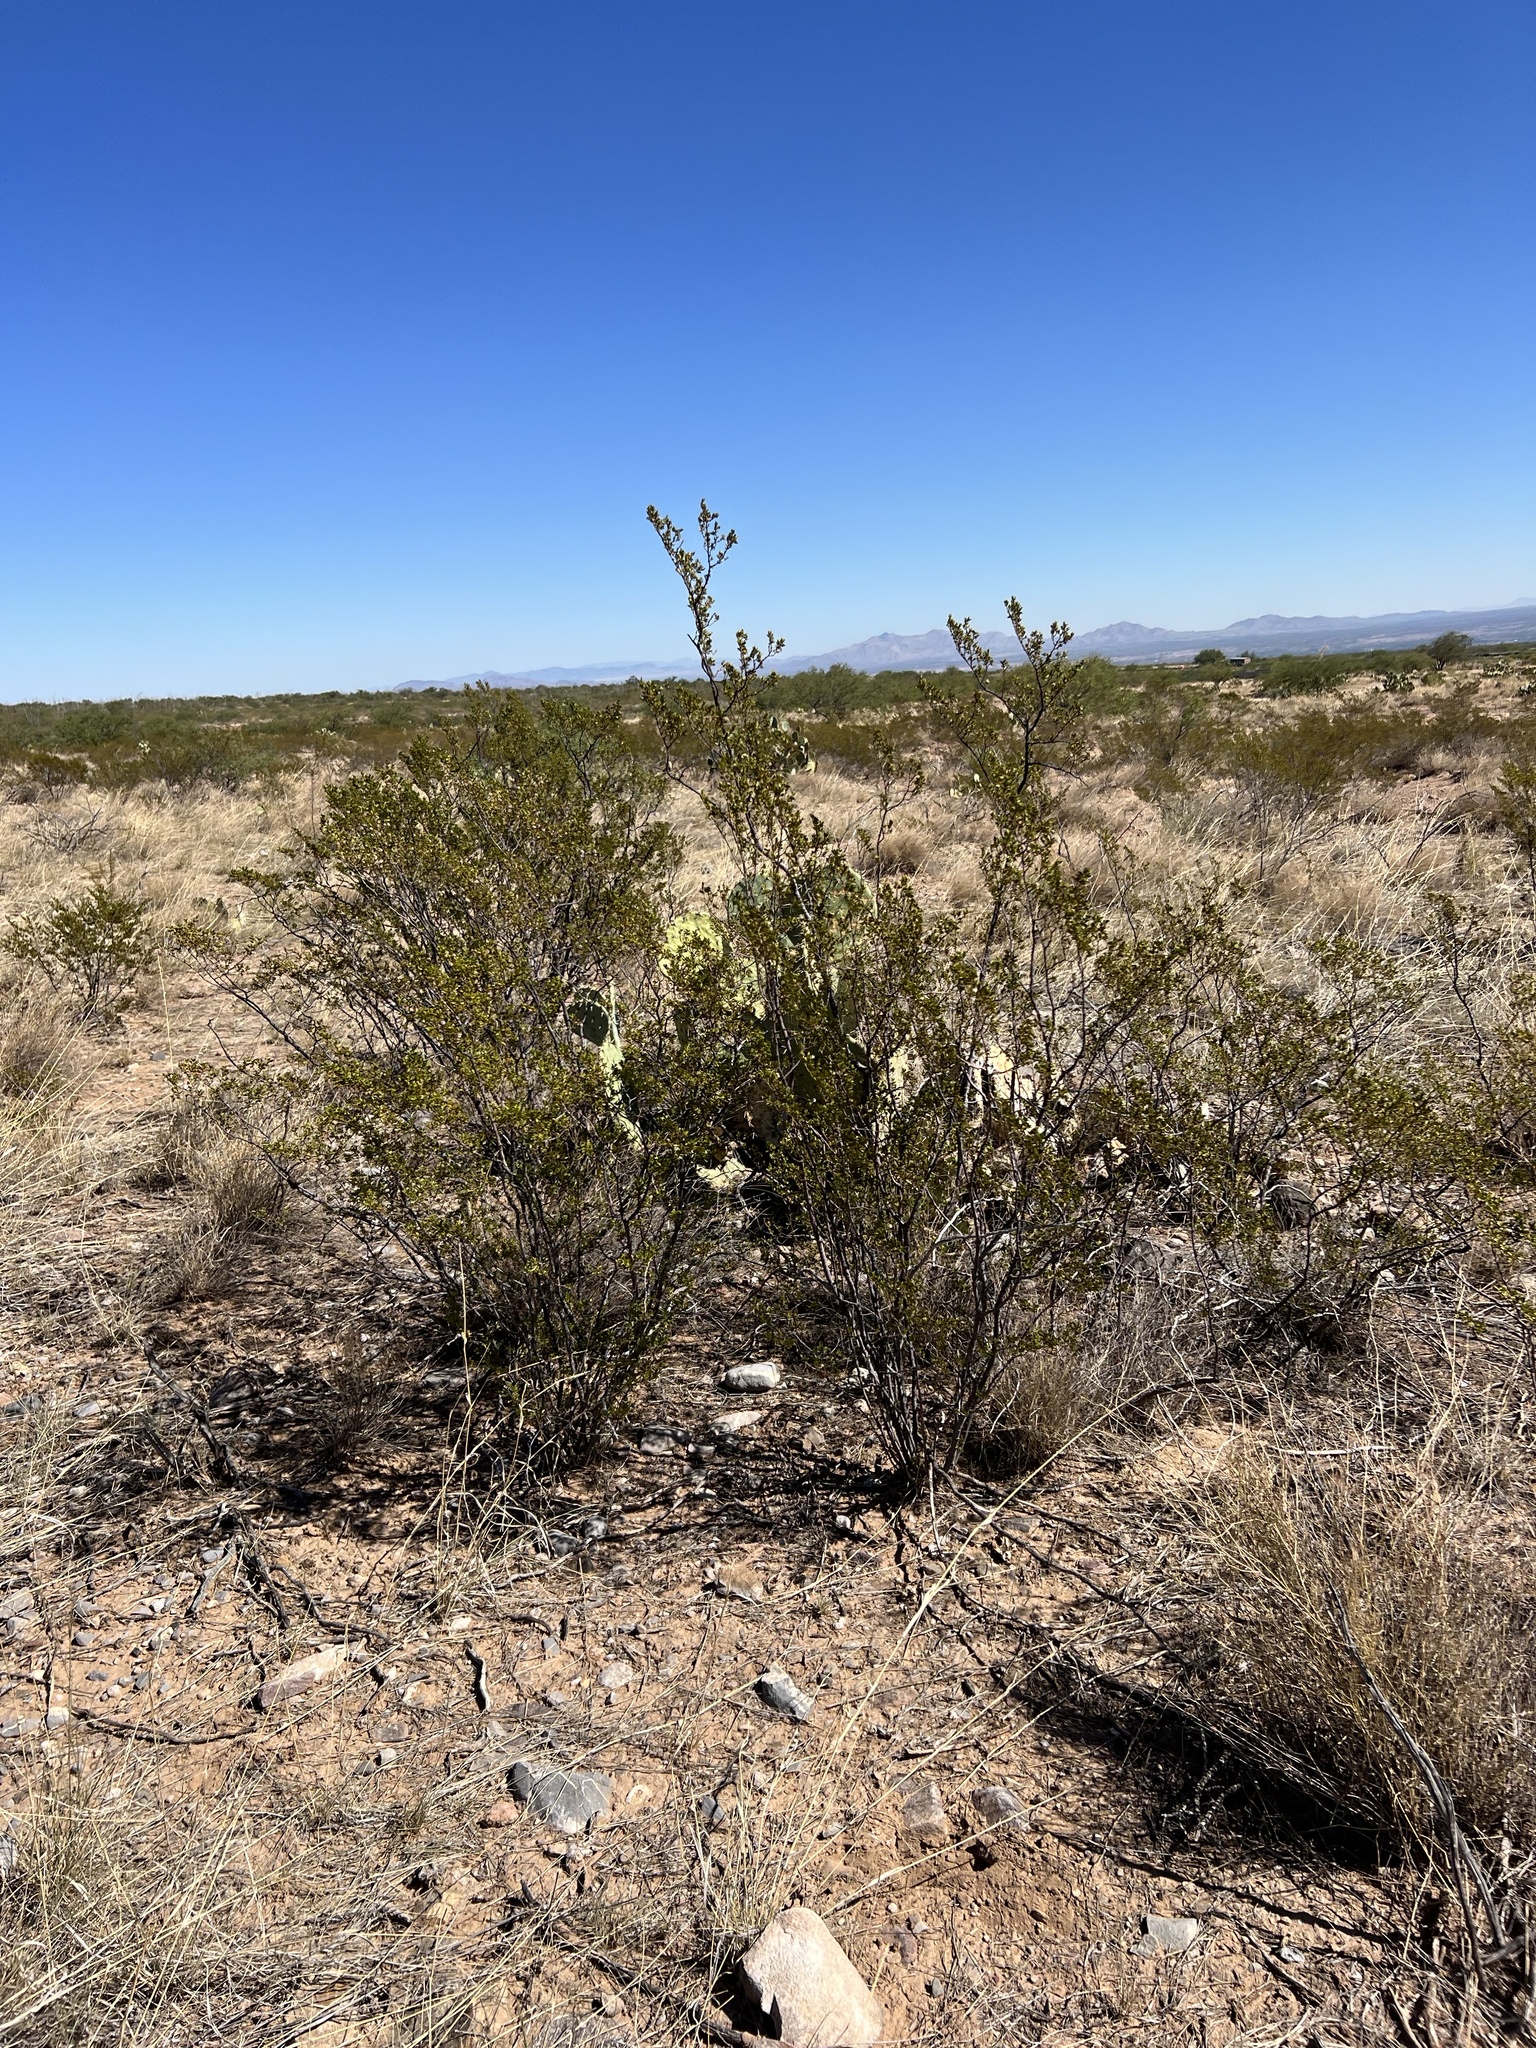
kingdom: Plantae
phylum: Tracheophyta
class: Magnoliopsida
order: Zygophyllales
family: Zygophyllaceae
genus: Larrea
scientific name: Larrea tridentata
